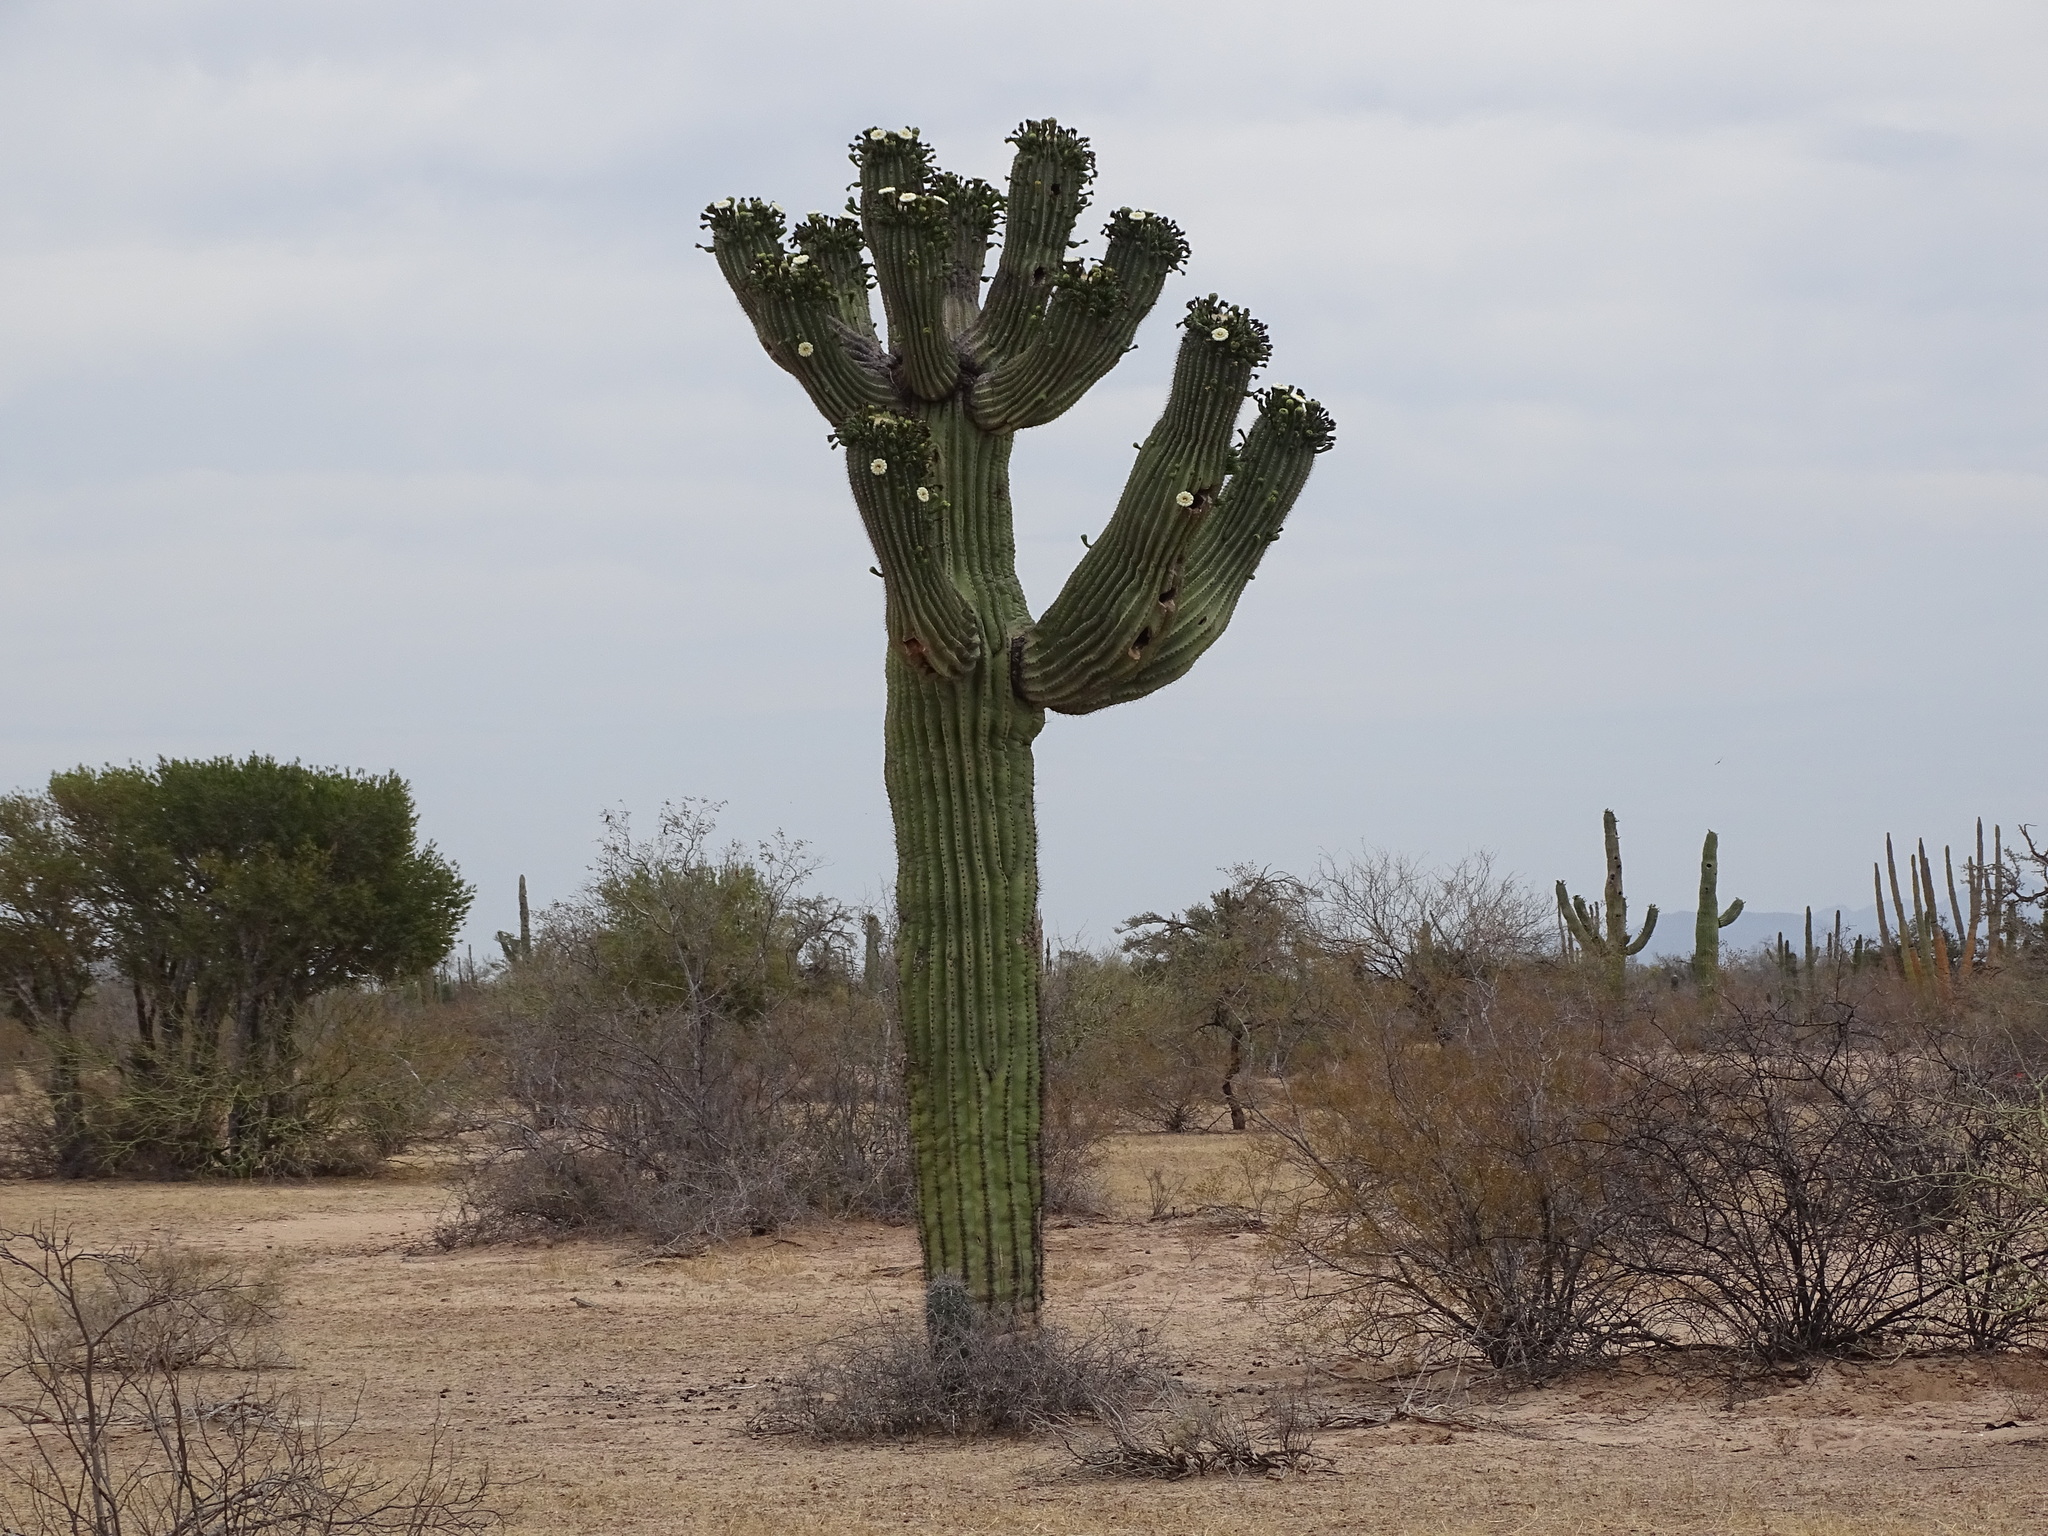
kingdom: Plantae
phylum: Tracheophyta
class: Magnoliopsida
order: Caryophyllales
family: Cactaceae
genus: Carnegiea
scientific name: Carnegiea gigantea
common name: Saguaro
